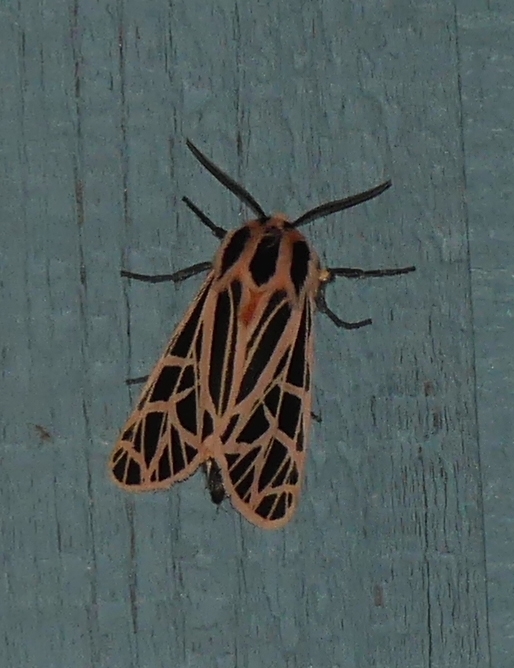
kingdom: Animalia
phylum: Arthropoda
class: Insecta
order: Lepidoptera
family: Erebidae
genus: Grammia
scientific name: Grammia parthenice
